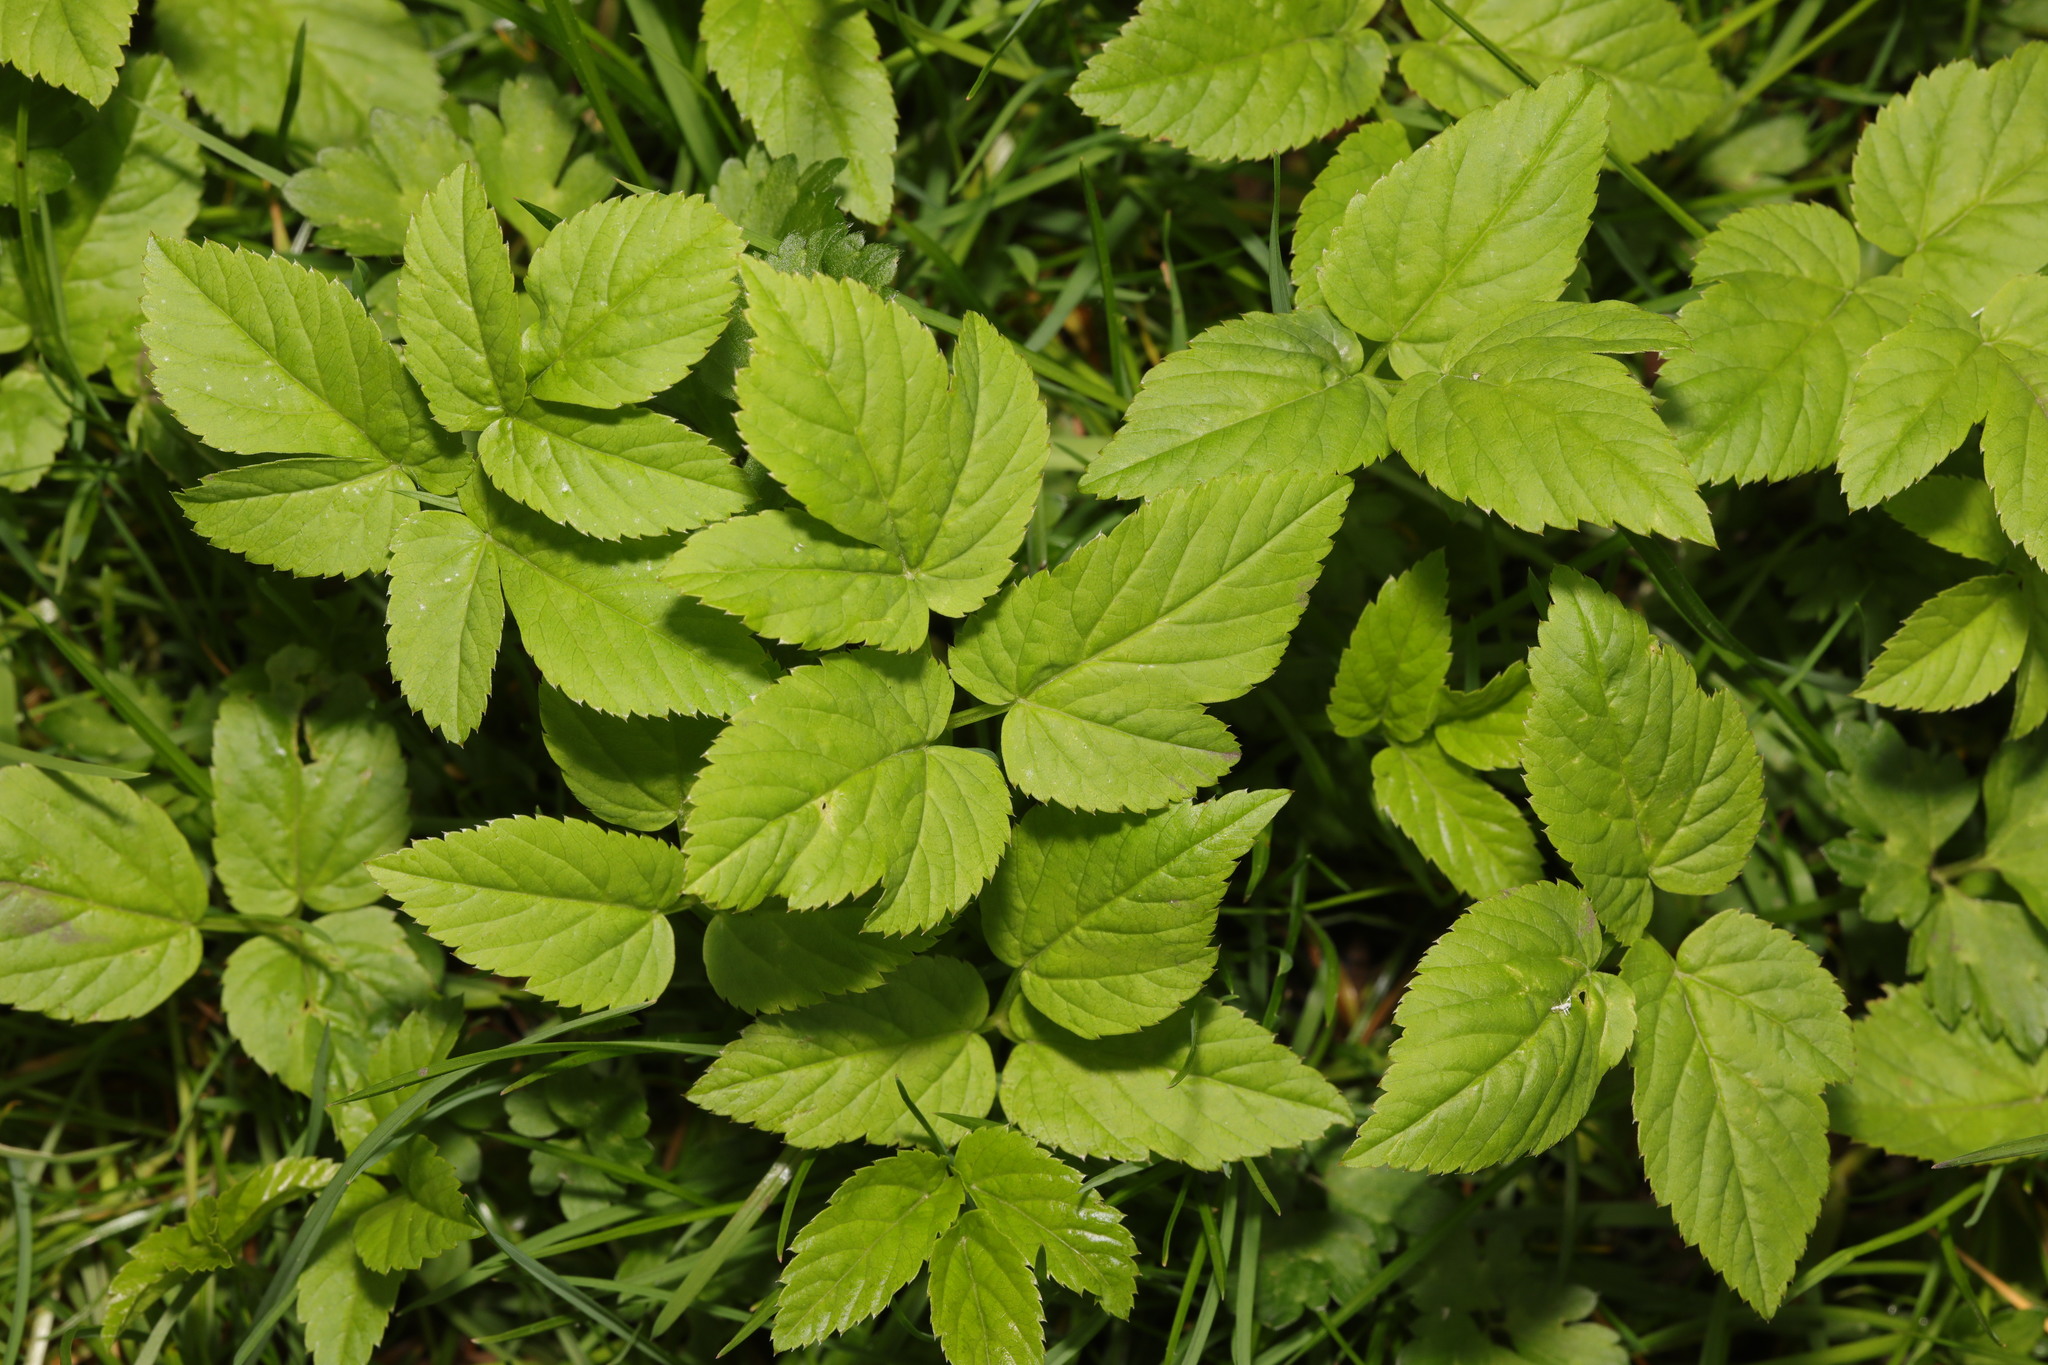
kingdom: Plantae
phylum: Tracheophyta
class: Magnoliopsida
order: Apiales
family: Apiaceae
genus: Aegopodium
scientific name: Aegopodium podagraria
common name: Ground-elder
